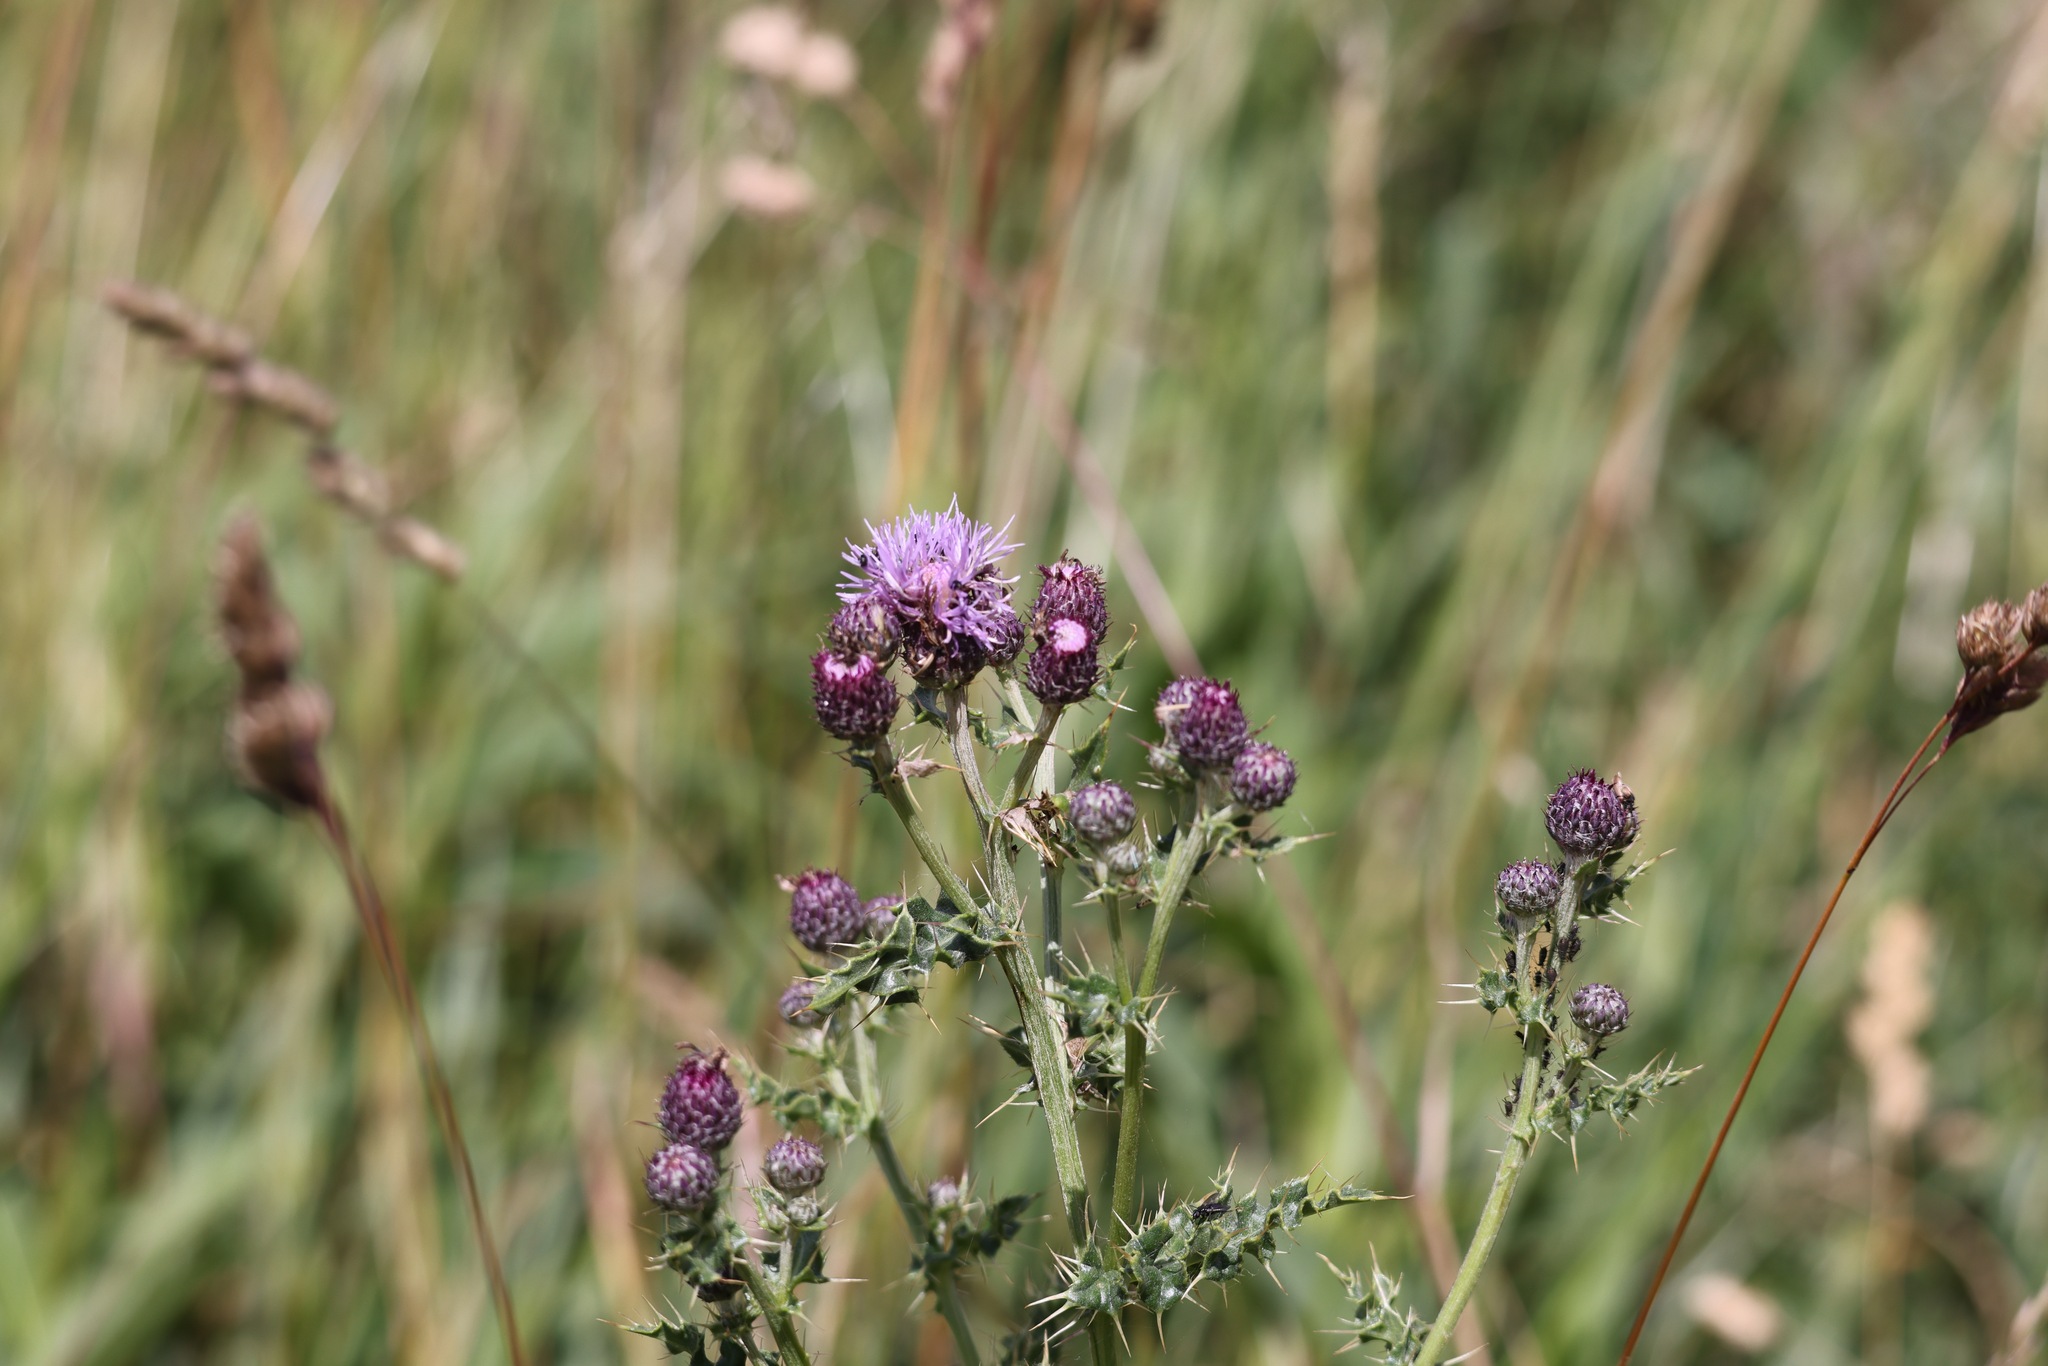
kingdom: Plantae
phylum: Tracheophyta
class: Magnoliopsida
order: Asterales
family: Asteraceae
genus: Cirsium
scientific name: Cirsium arvense
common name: Creeping thistle
